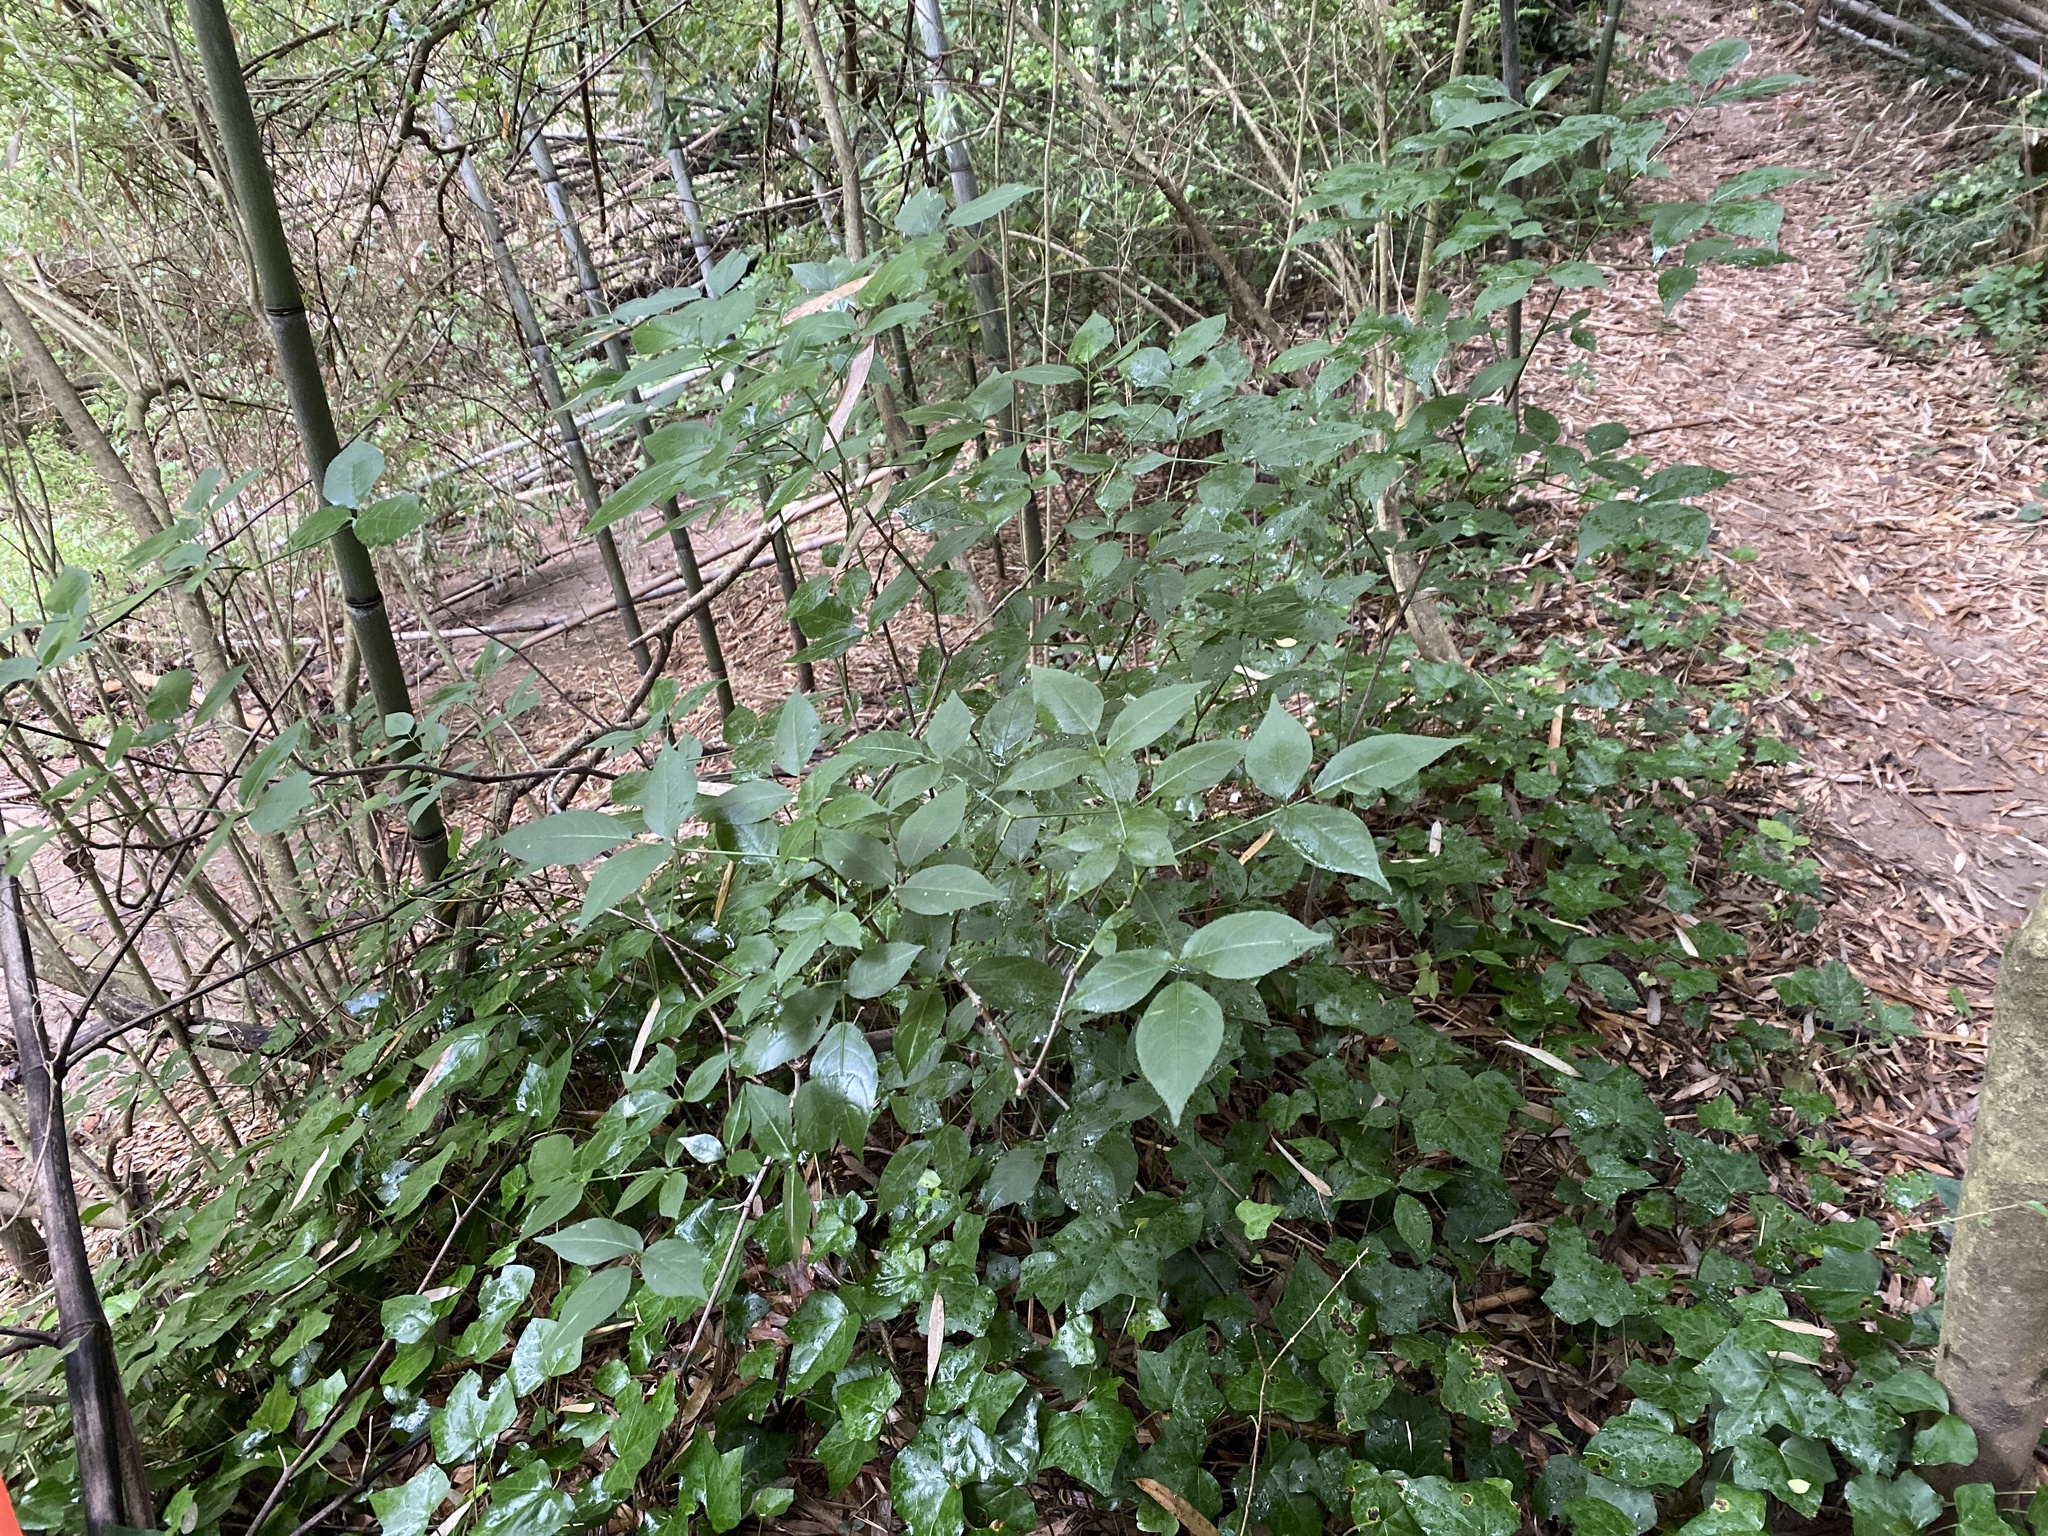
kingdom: Plantae
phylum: Tracheophyta
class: Magnoliopsida
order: Crossosomatales
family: Staphyleaceae
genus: Staphylea
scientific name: Staphylea trifolia
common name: American bladdernut
